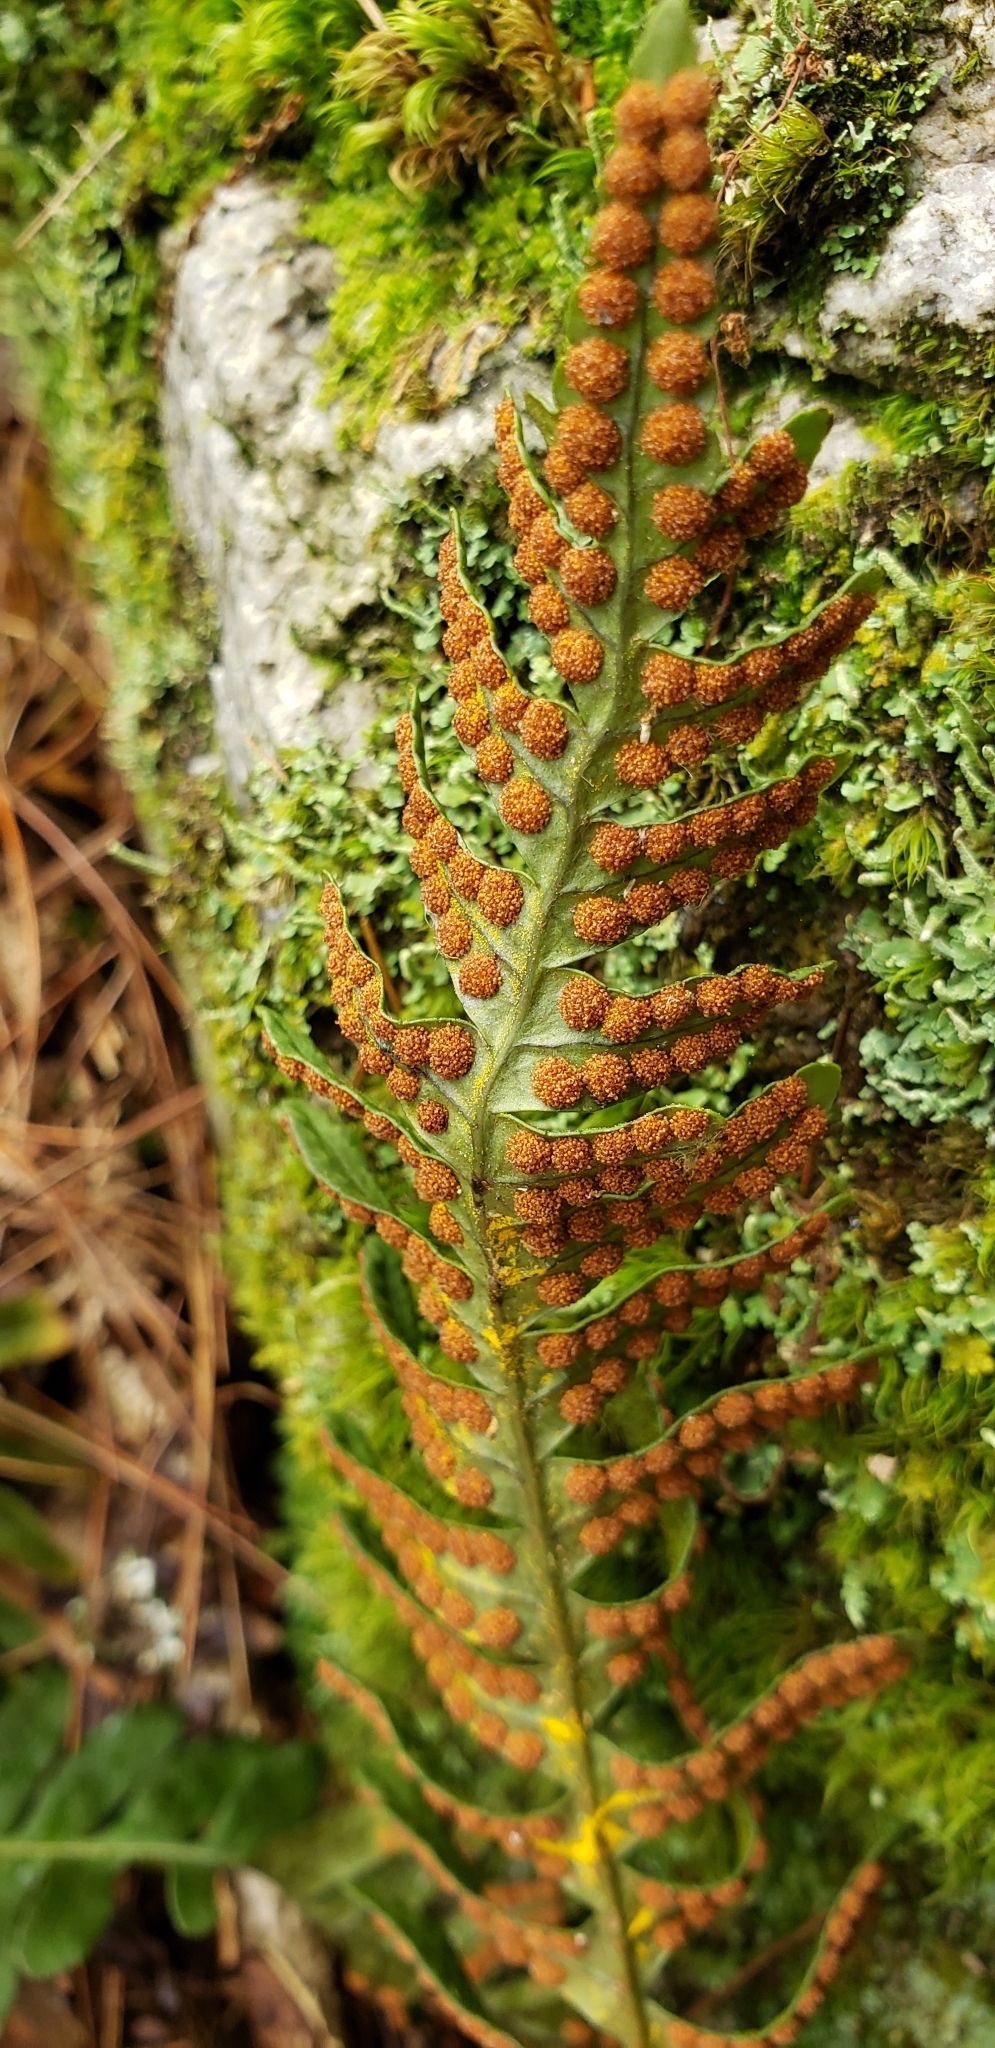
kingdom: Plantae
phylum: Tracheophyta
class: Polypodiopsida
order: Polypodiales
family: Polypodiaceae
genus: Polypodium
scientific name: Polypodium virginianum
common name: American wall fern
